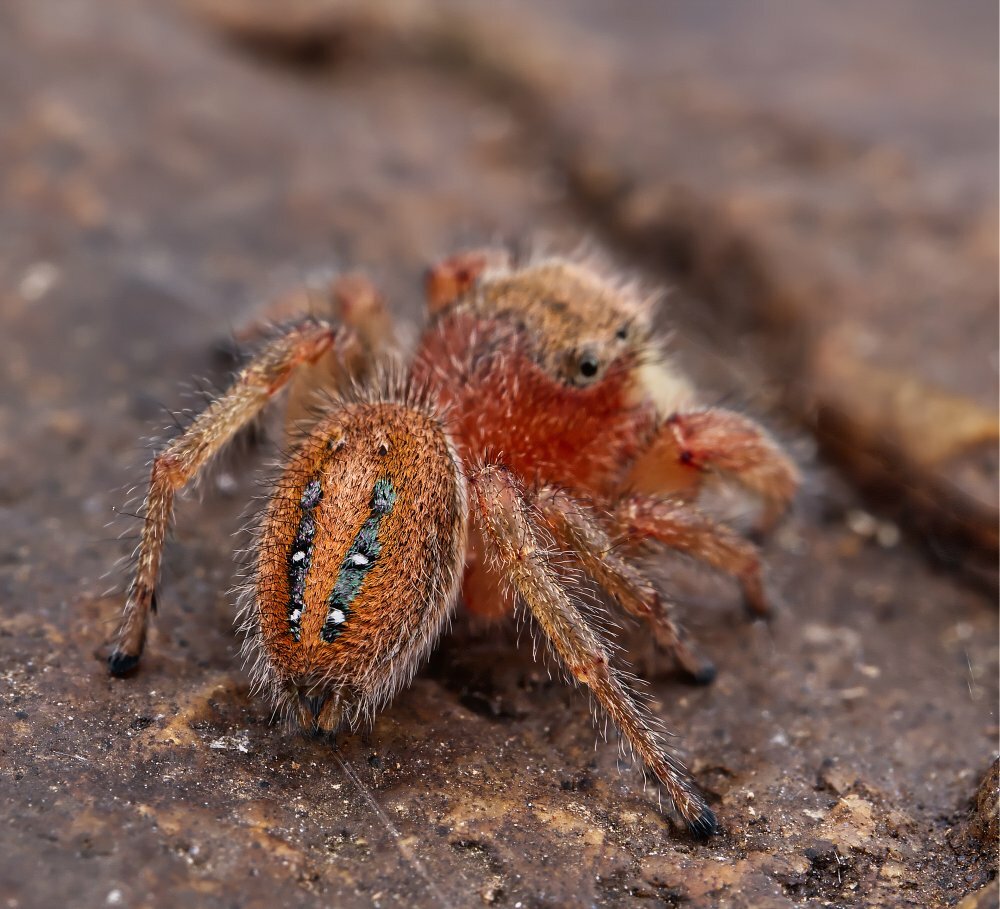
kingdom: Animalia
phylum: Arthropoda
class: Arachnida
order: Araneae
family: Salticidae
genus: Phidippus
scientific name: Phidippus pius
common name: Jumping spiders
